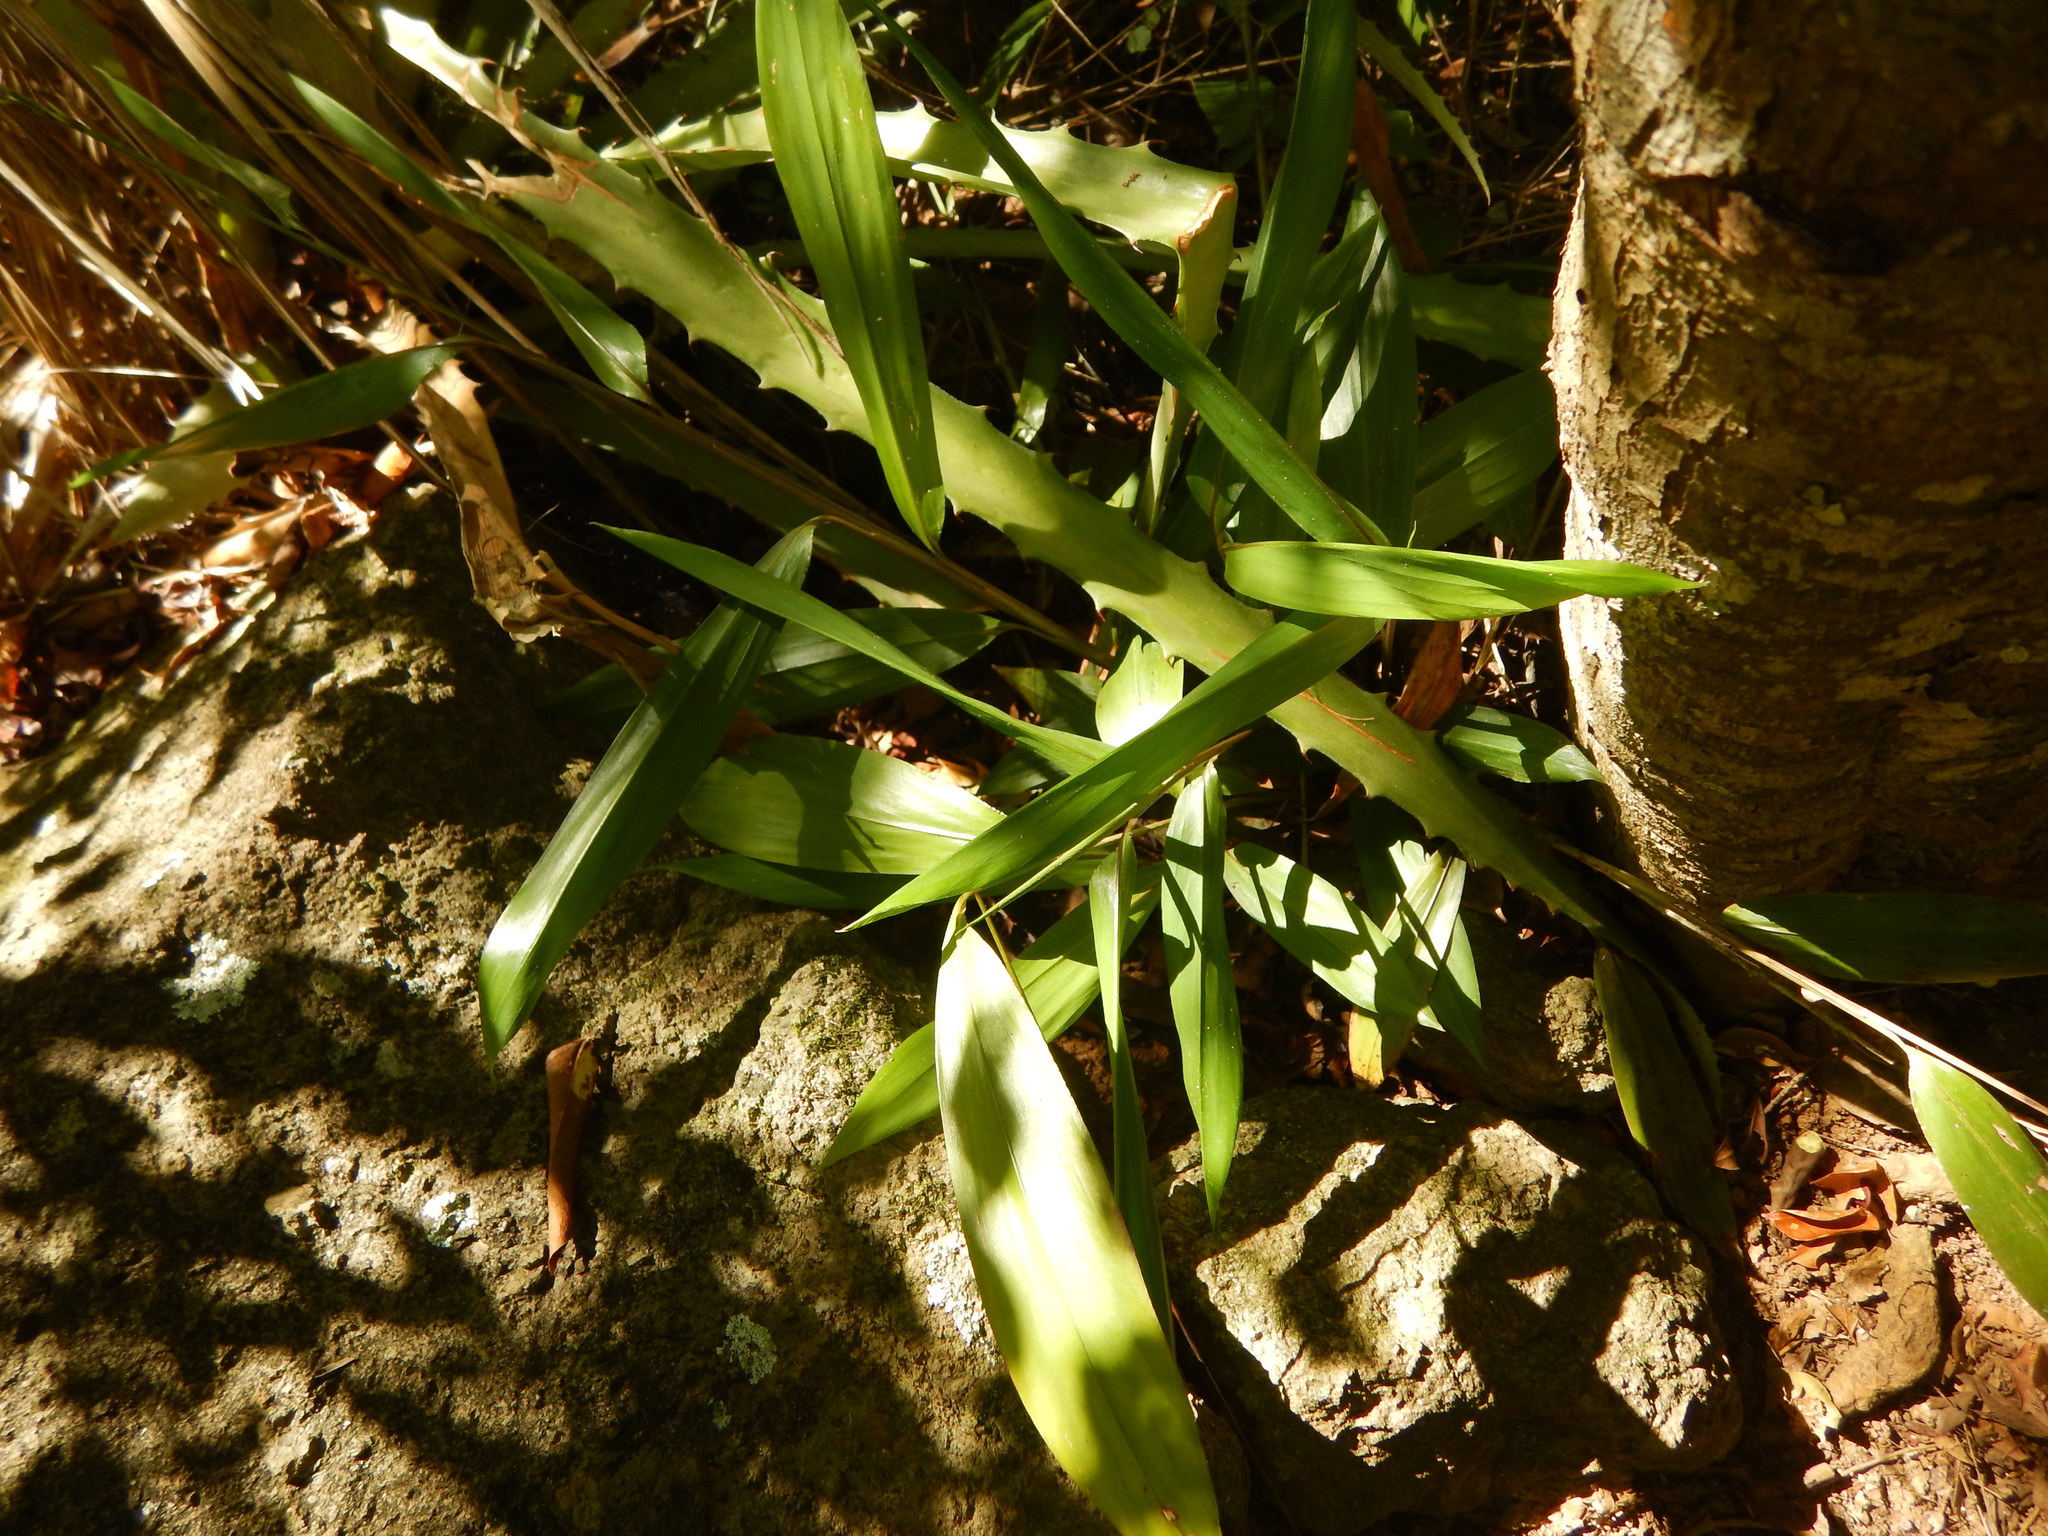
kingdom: Plantae
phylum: Tracheophyta
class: Liliopsida
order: Poales
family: Poaceae
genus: Pharus
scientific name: Pharus lappulaceus
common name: Creeping leafstalk grass
